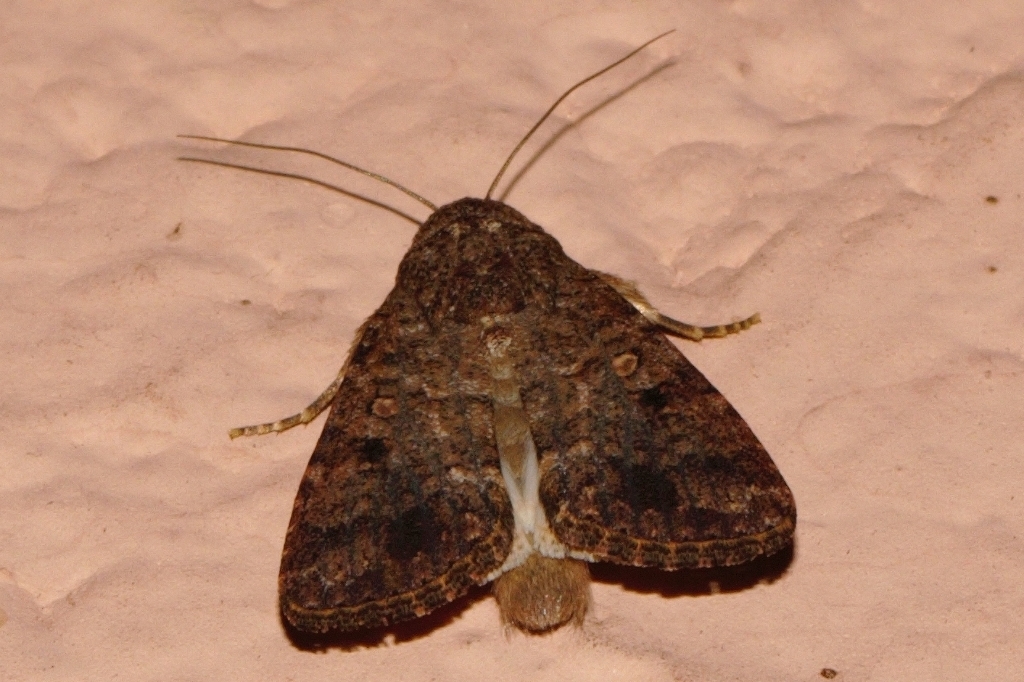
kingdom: Animalia
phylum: Arthropoda
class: Insecta
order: Lepidoptera
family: Noctuidae
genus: Spodoptera
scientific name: Spodoptera mauritia
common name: Lawn armyworm
